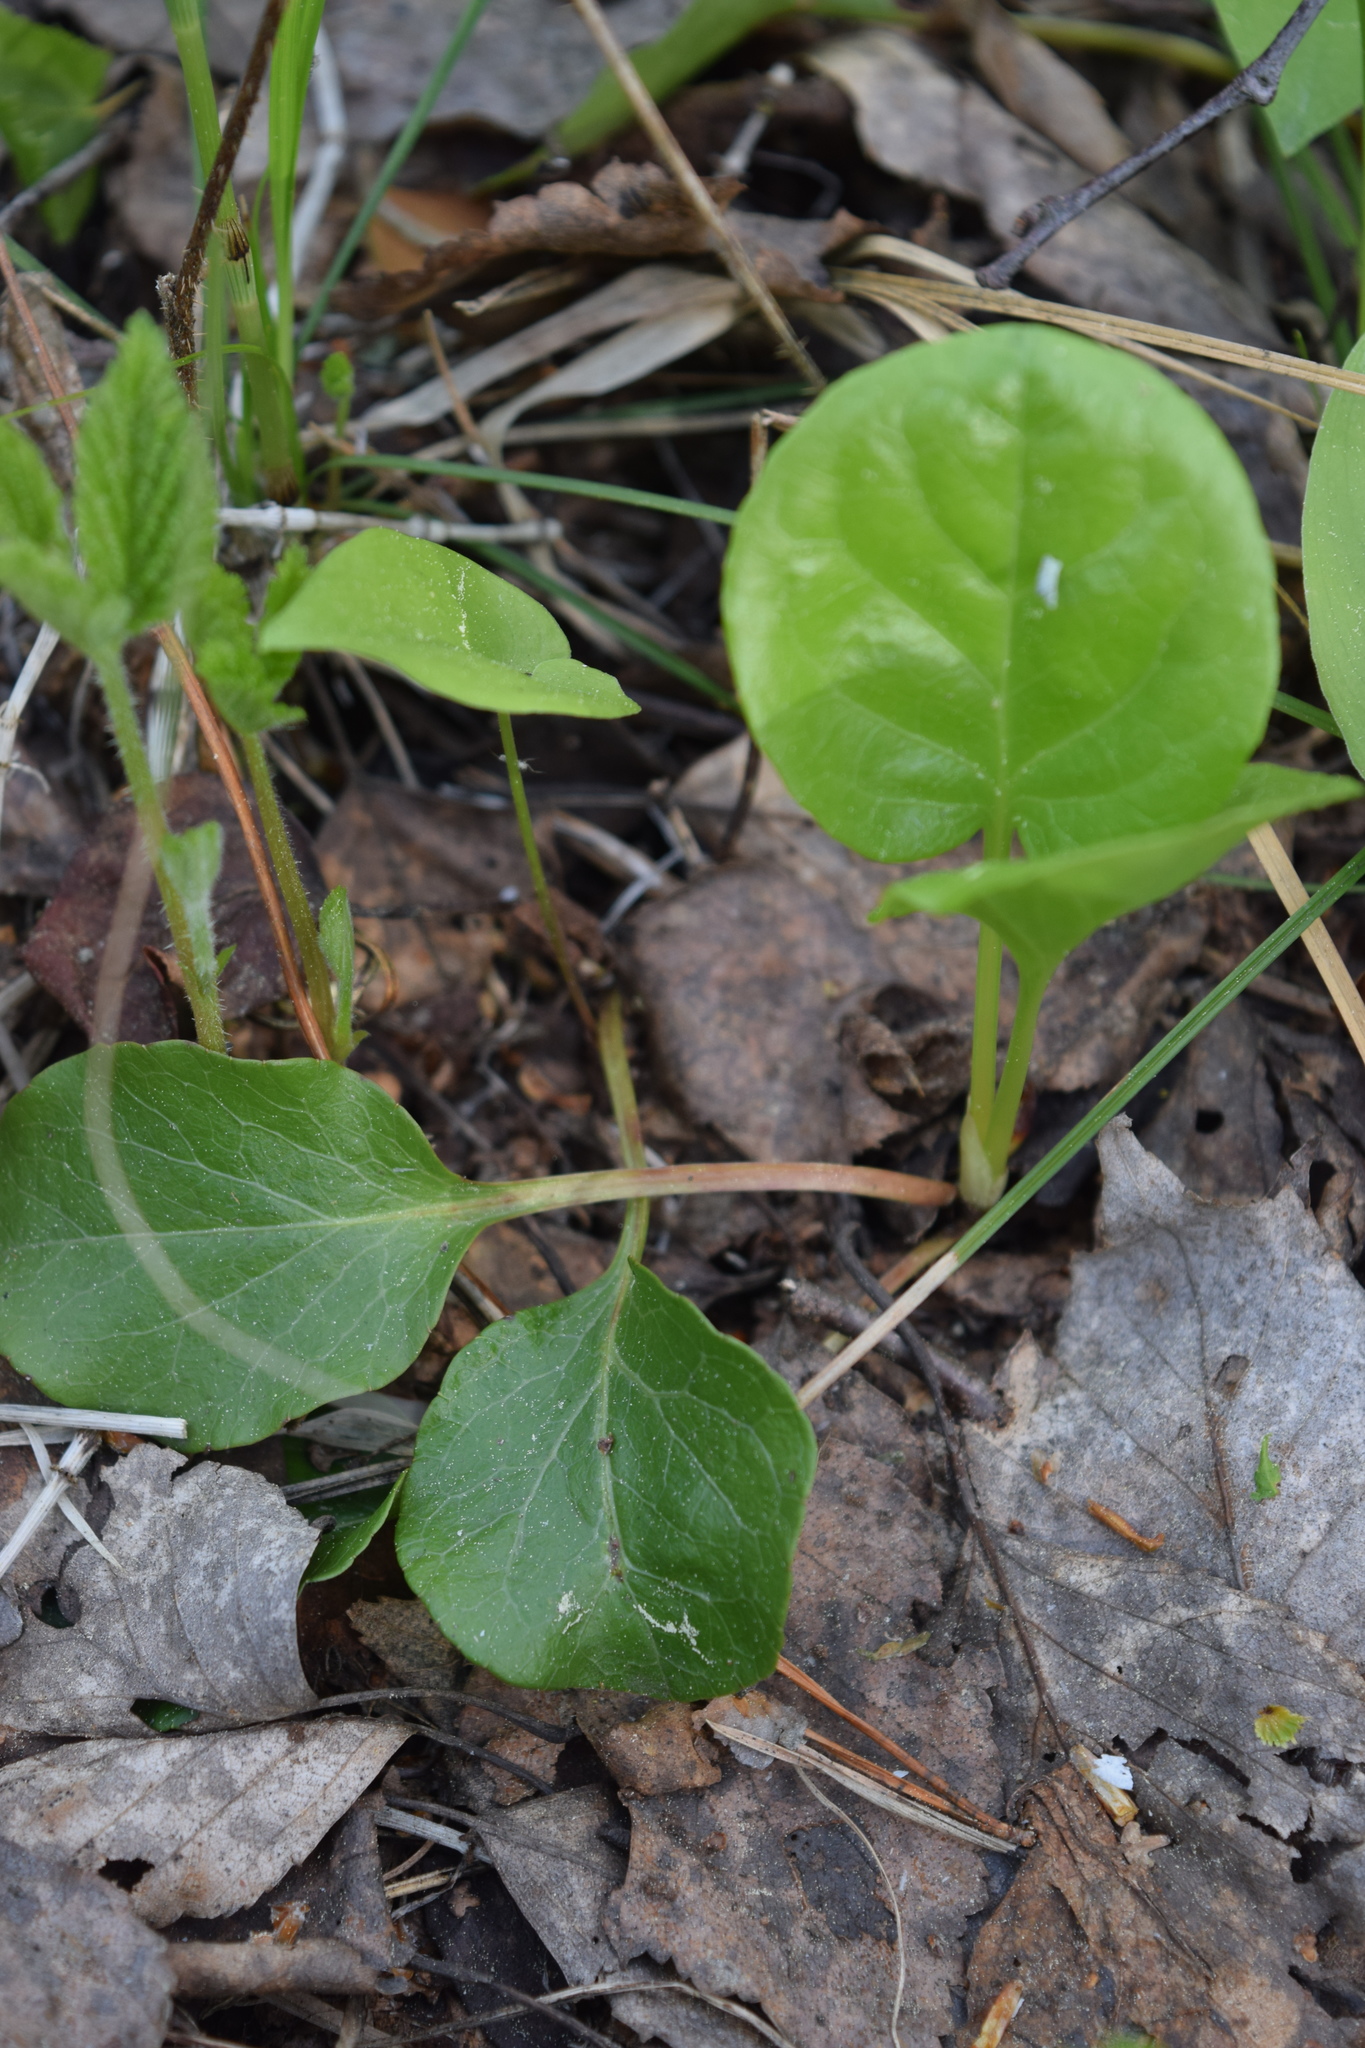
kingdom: Plantae
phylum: Tracheophyta
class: Magnoliopsida
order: Ericales
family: Ericaceae
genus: Pyrola
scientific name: Pyrola
